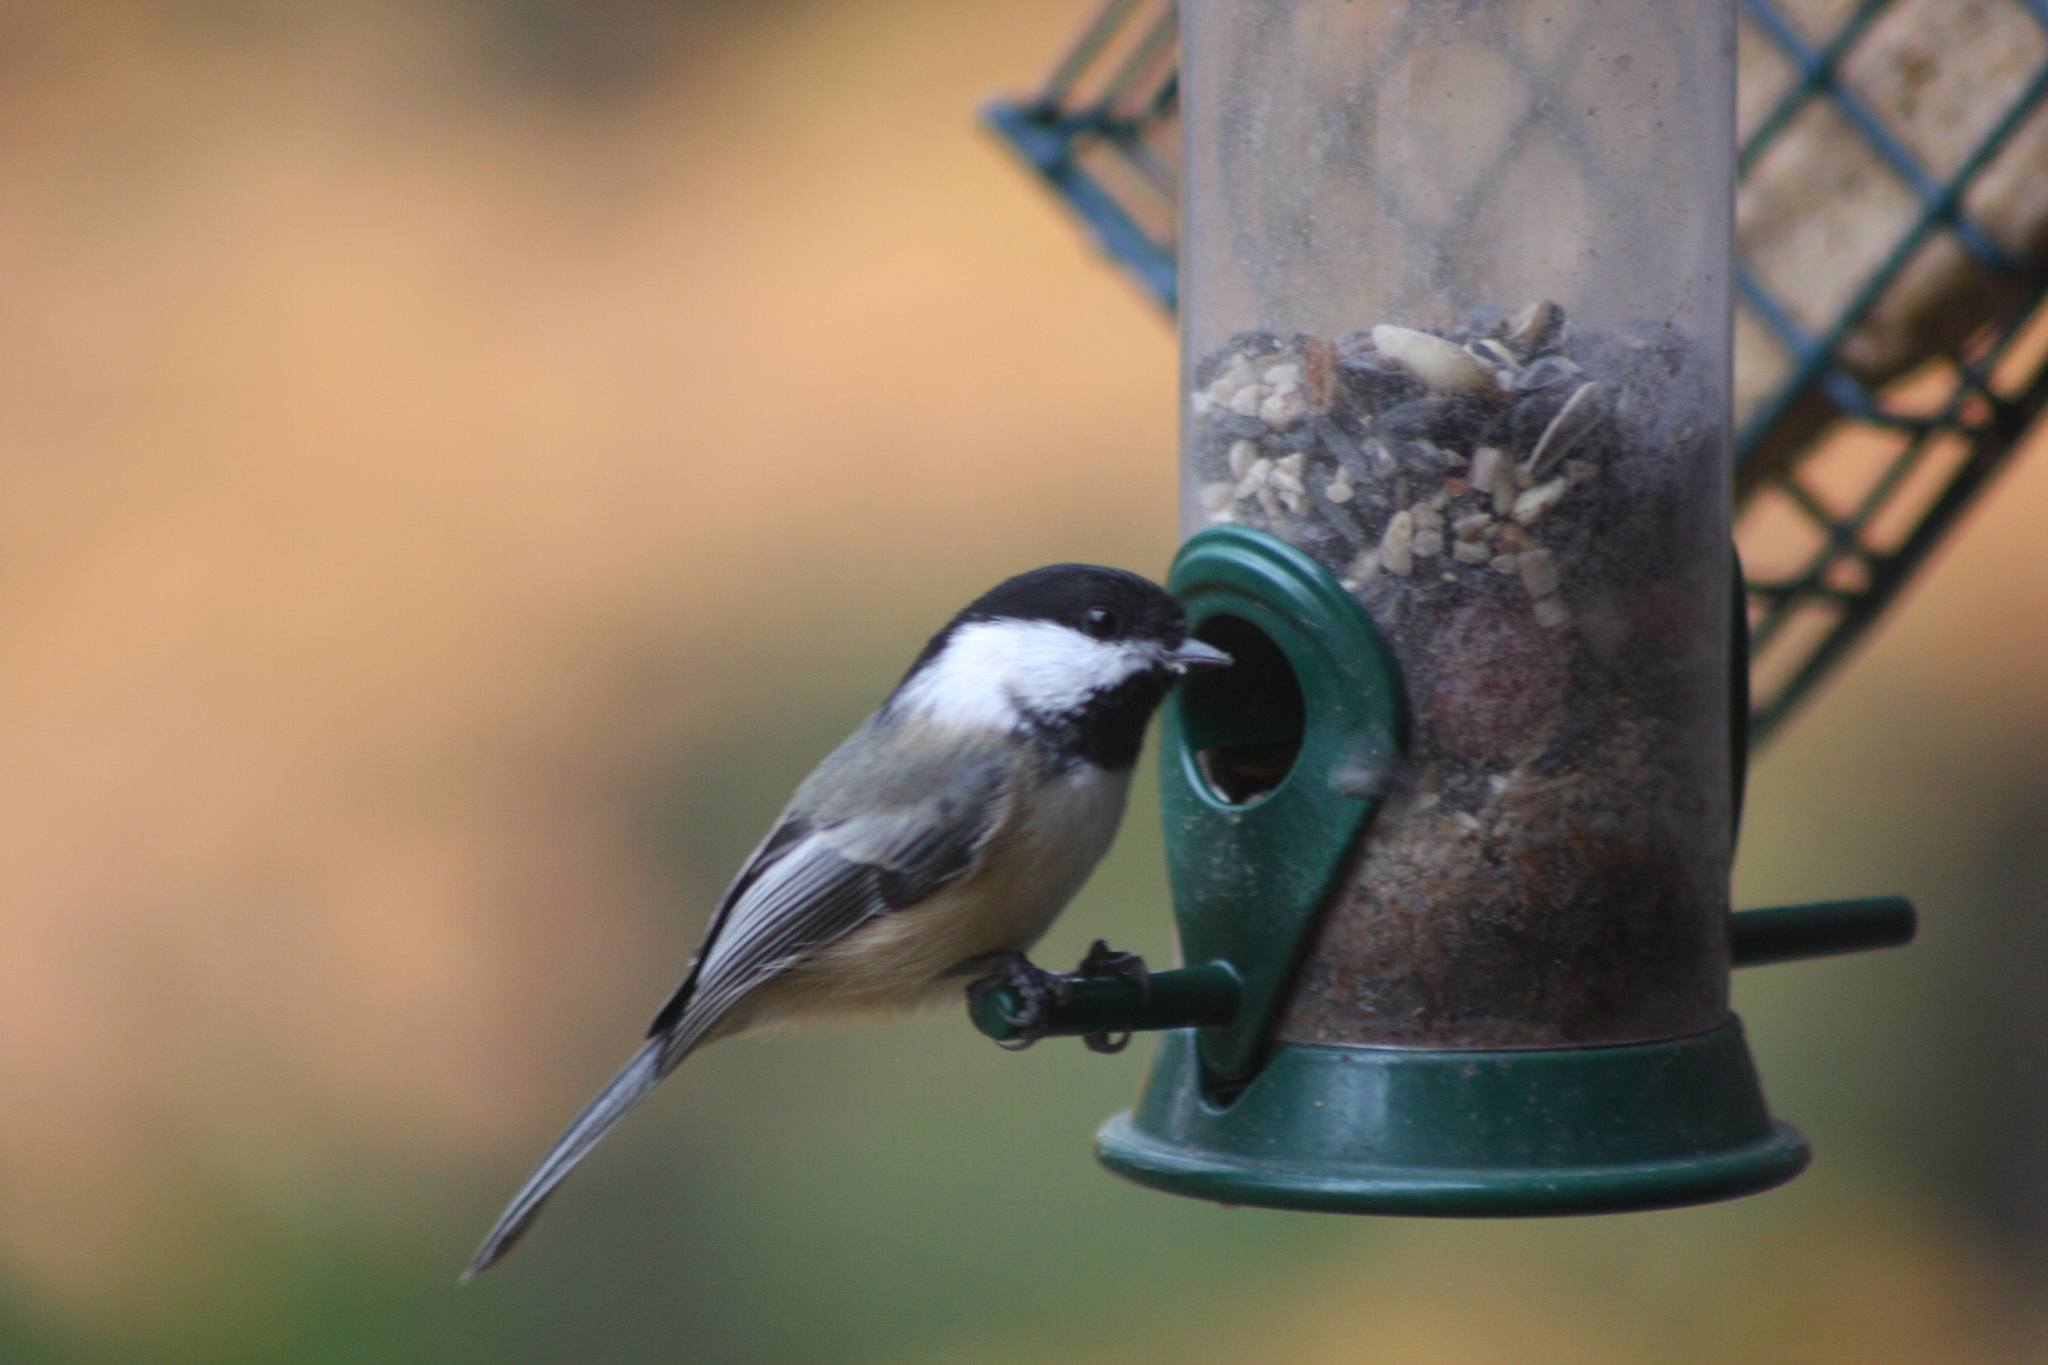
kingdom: Animalia
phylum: Chordata
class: Aves
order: Passeriformes
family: Paridae
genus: Poecile
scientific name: Poecile atricapillus
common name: Black-capped chickadee
